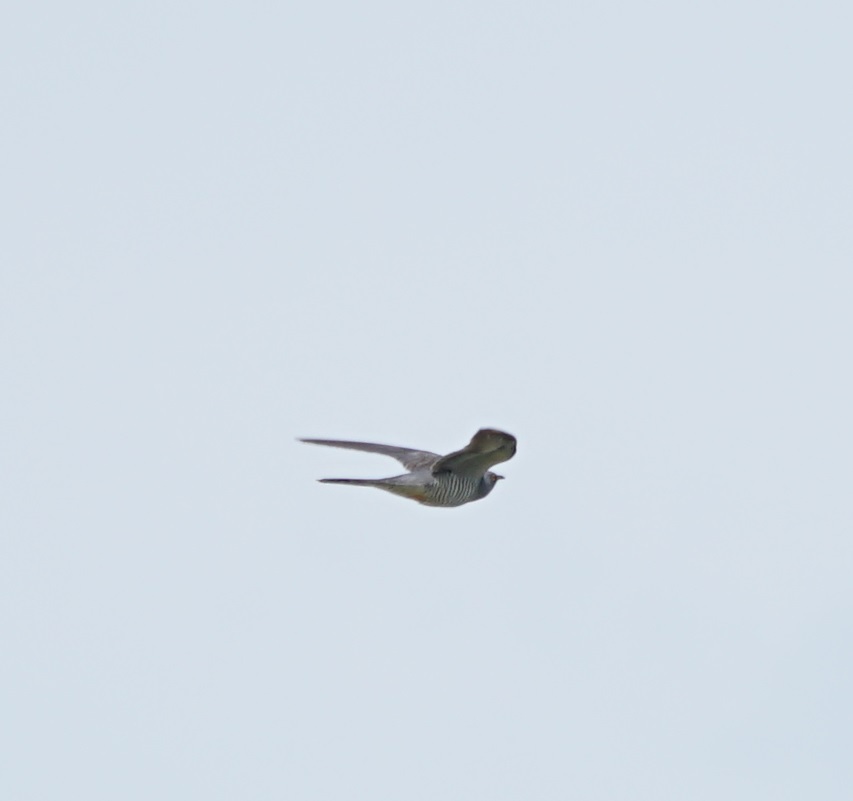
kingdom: Animalia
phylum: Chordata
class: Aves
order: Cuculiformes
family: Cuculidae
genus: Cuculus
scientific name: Cuculus canorus
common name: Common cuckoo
